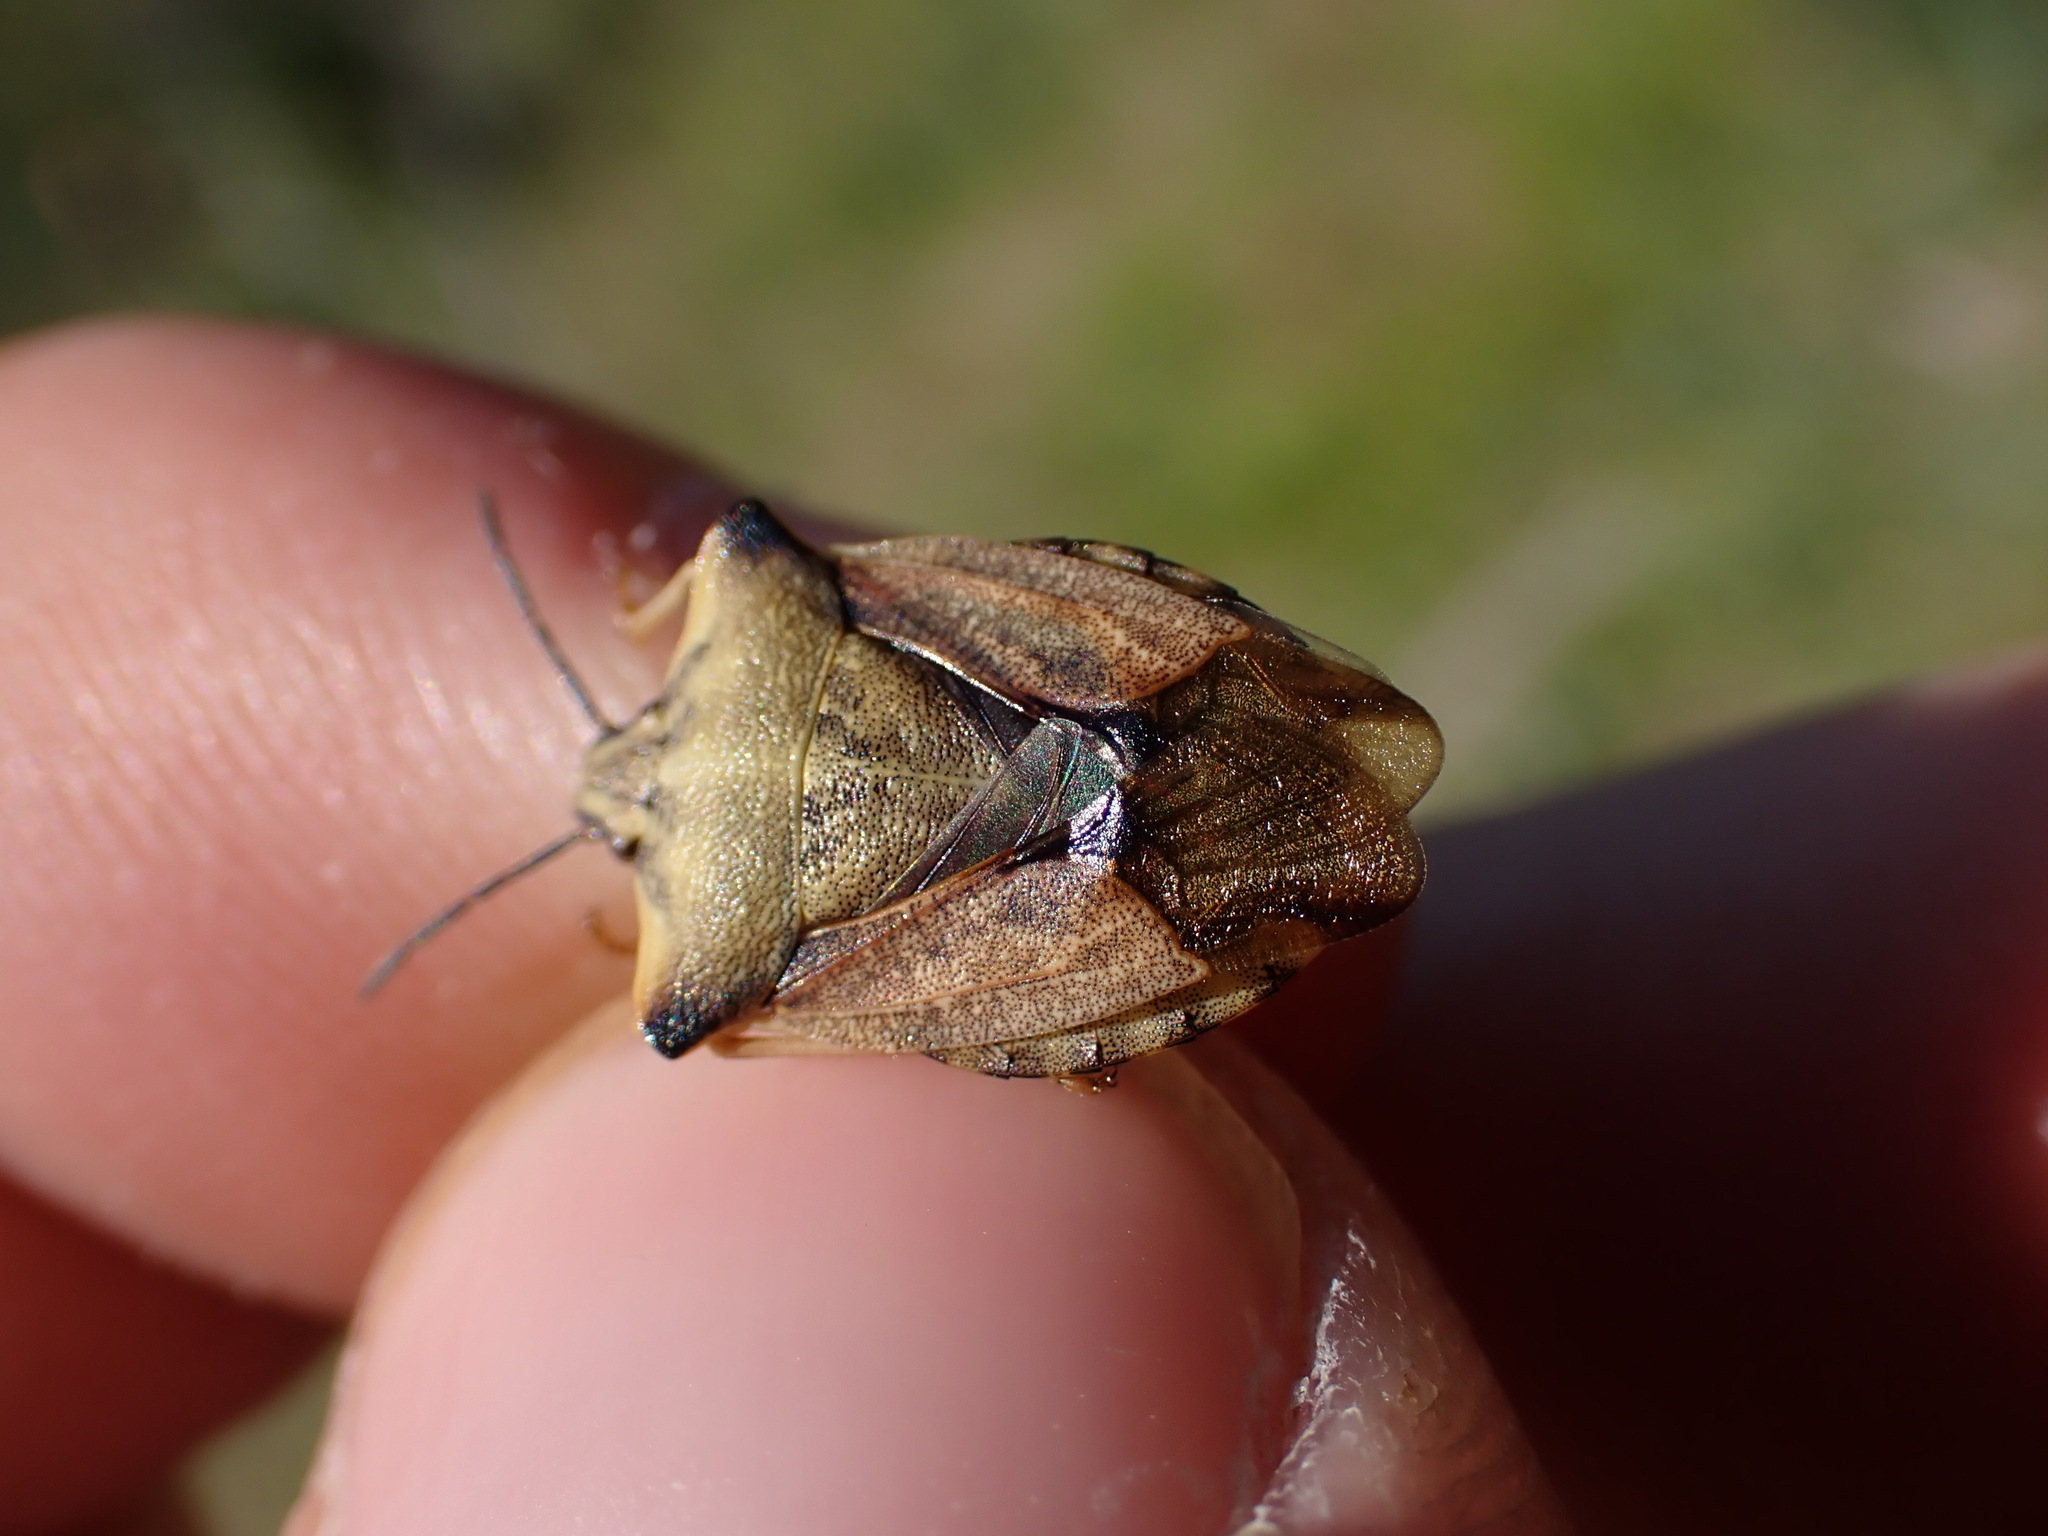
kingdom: Animalia
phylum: Arthropoda
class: Insecta
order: Hemiptera
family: Pentatomidae
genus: Carpocoris
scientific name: Carpocoris fuscispinus
